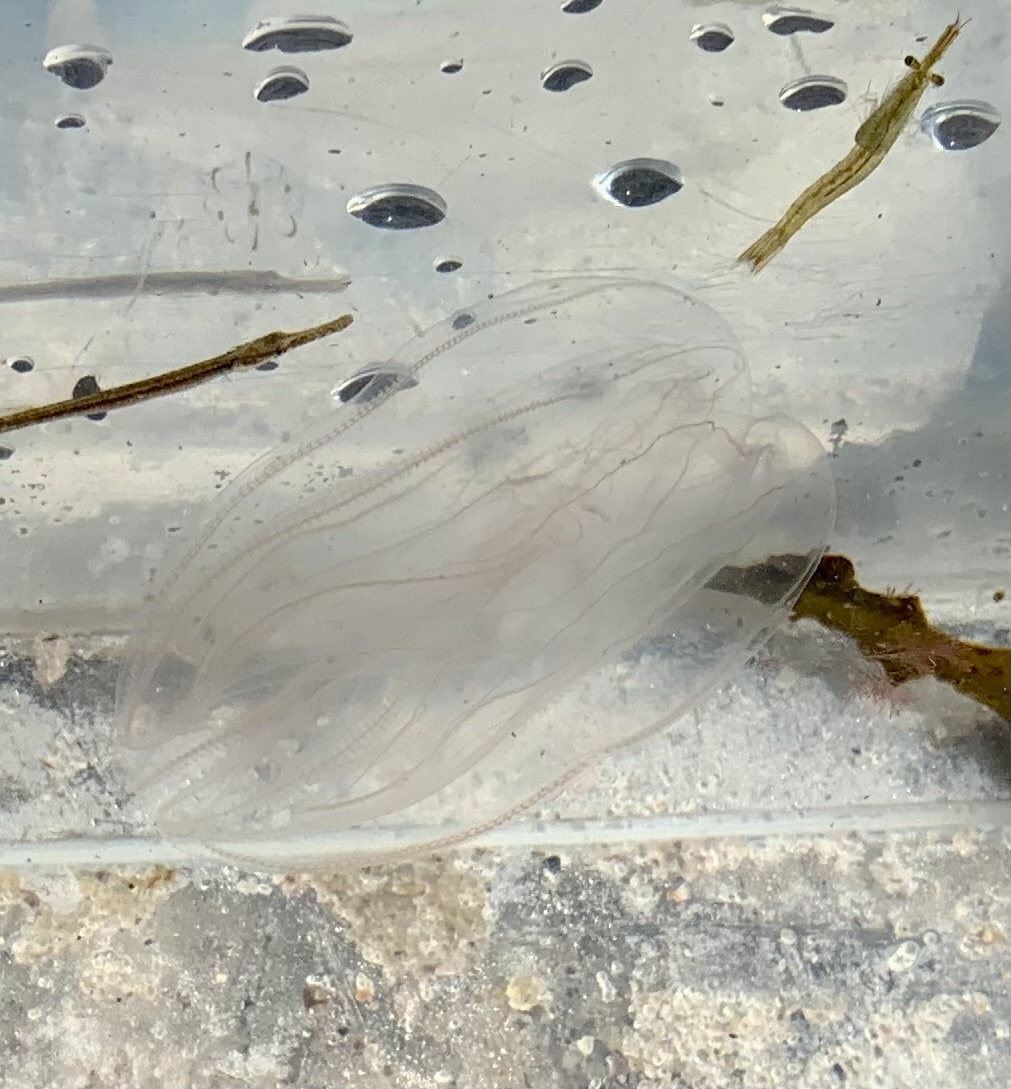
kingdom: Animalia
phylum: Ctenophora
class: Tentaculata
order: Lobata
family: Bolinopsidae
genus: Mnemiopsis
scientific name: Mnemiopsis leidyi
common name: American comb jelly
